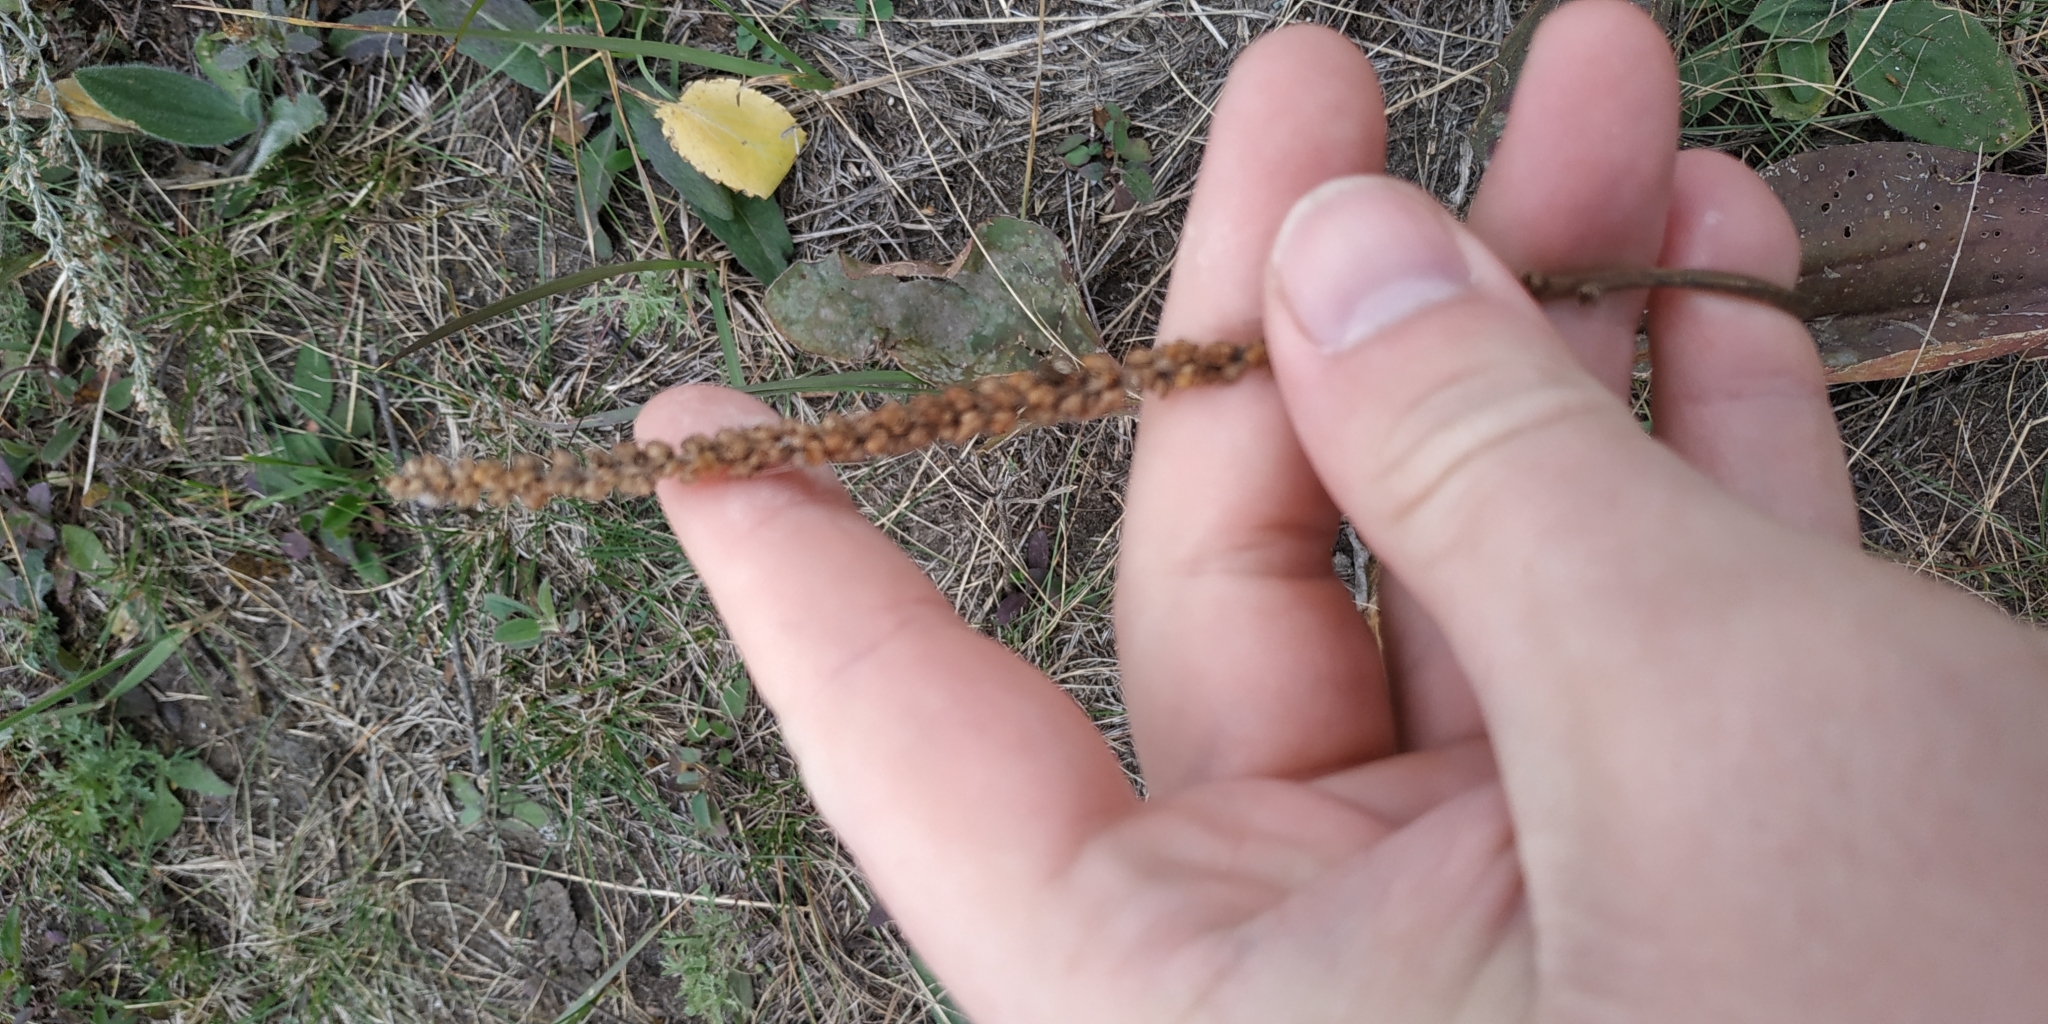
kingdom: Plantae
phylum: Tracheophyta
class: Magnoliopsida
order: Lamiales
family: Plantaginaceae
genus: Plantago
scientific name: Plantago cornuti
